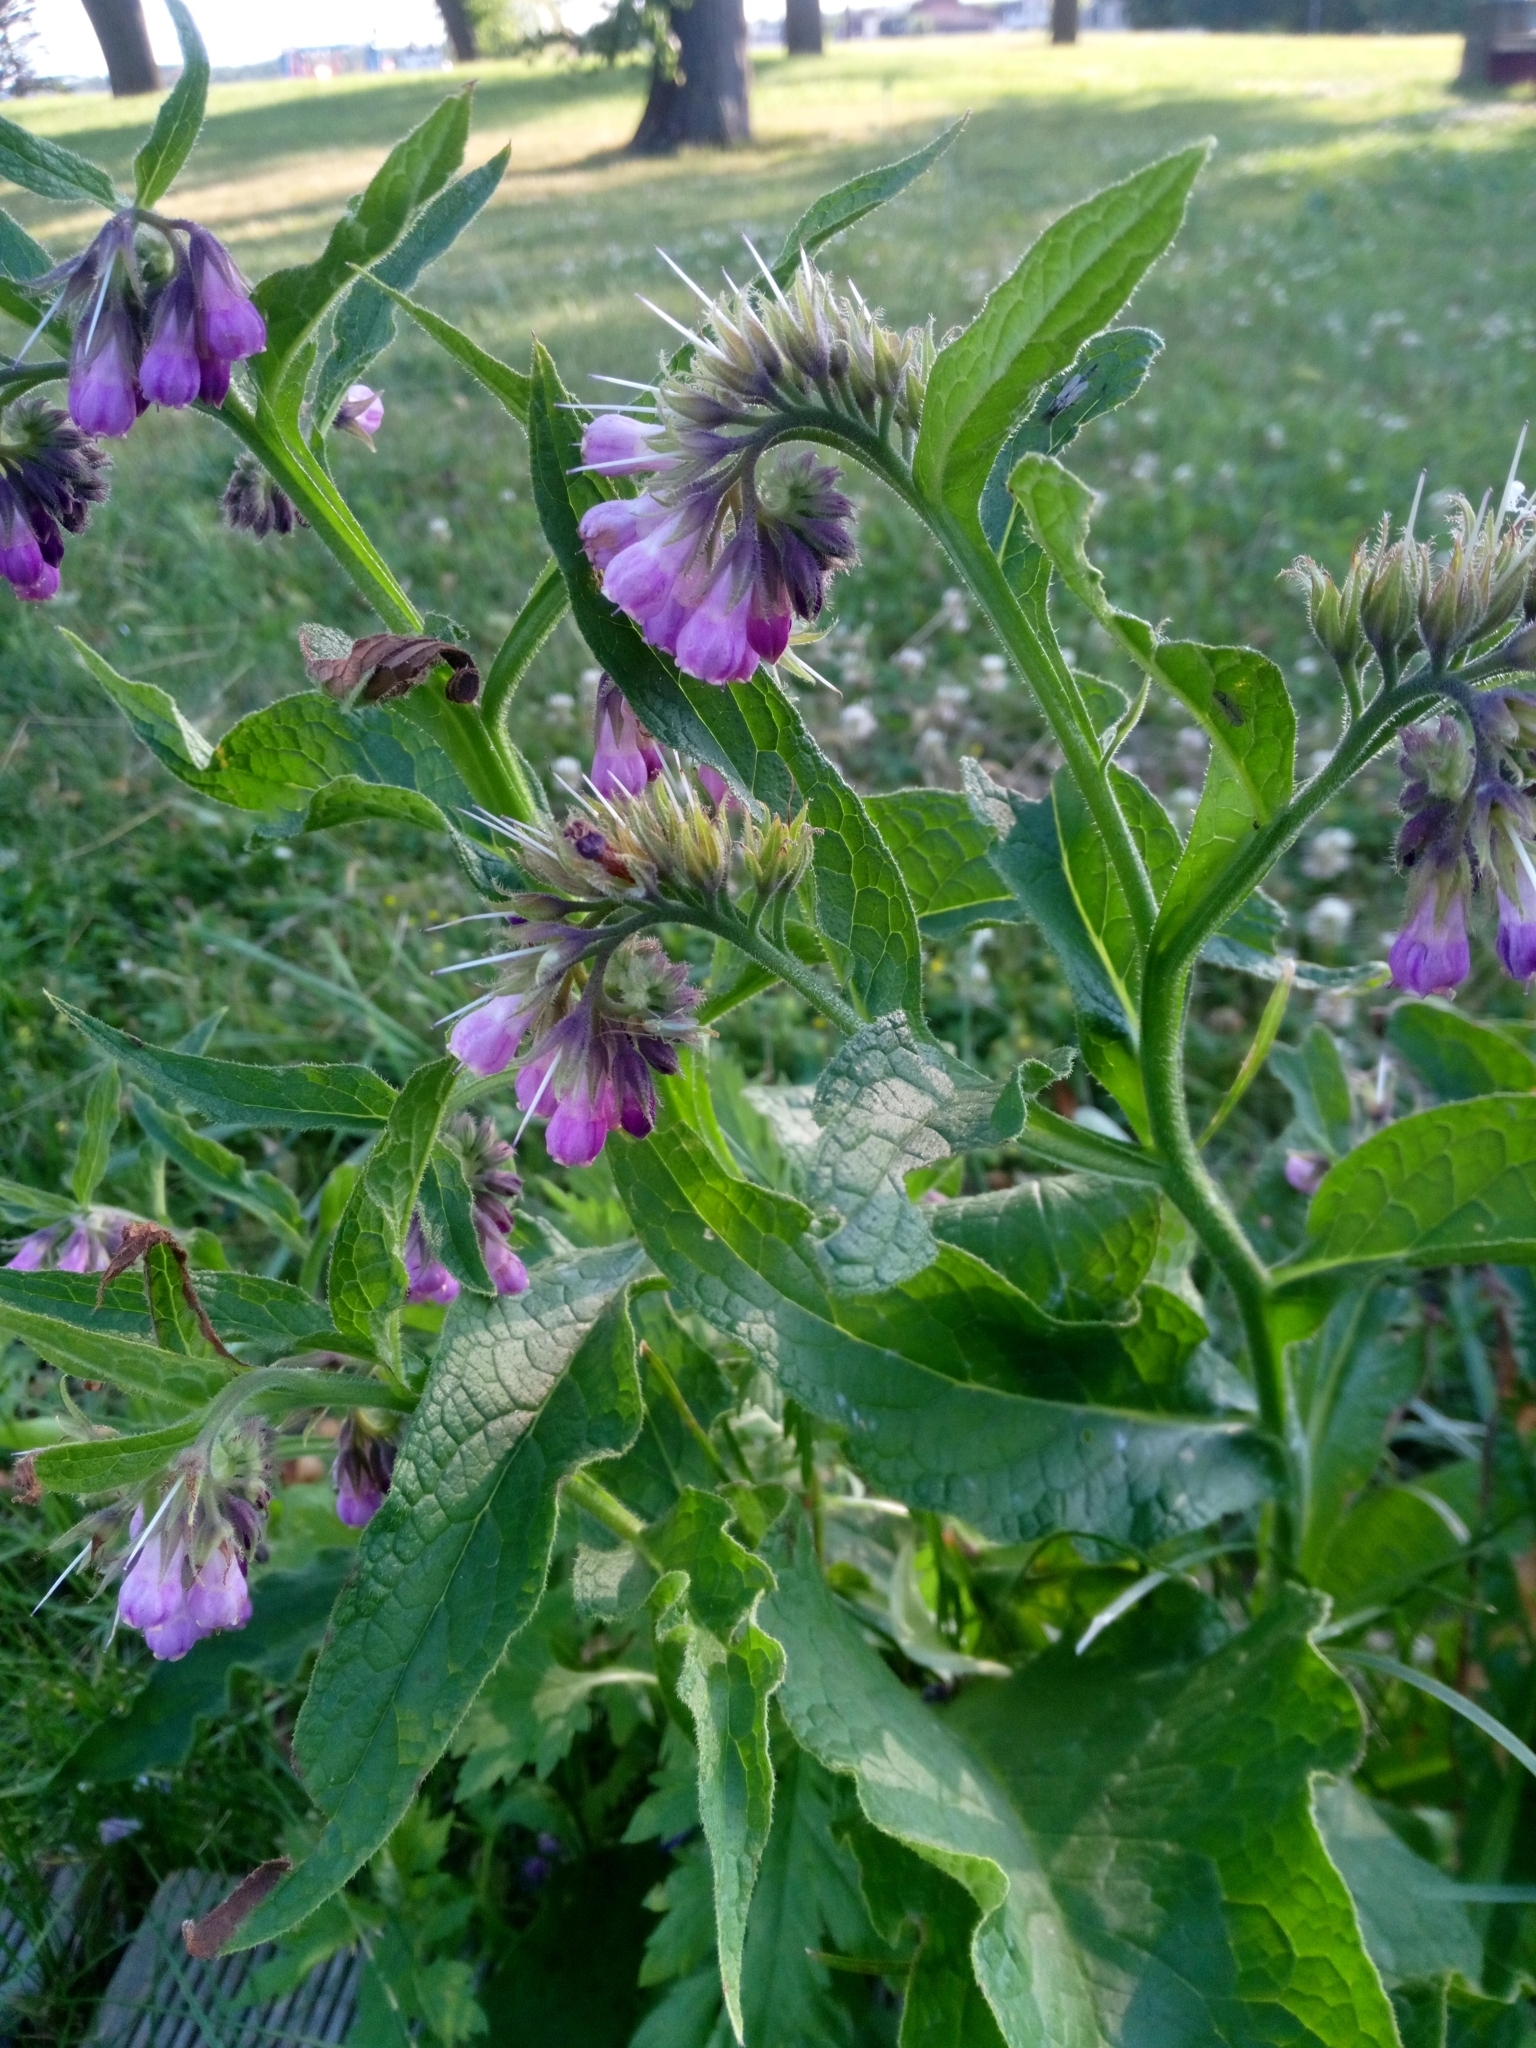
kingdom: Plantae
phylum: Tracheophyta
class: Magnoliopsida
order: Boraginales
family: Boraginaceae
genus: Symphytum
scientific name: Symphytum officinale
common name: Common comfrey
